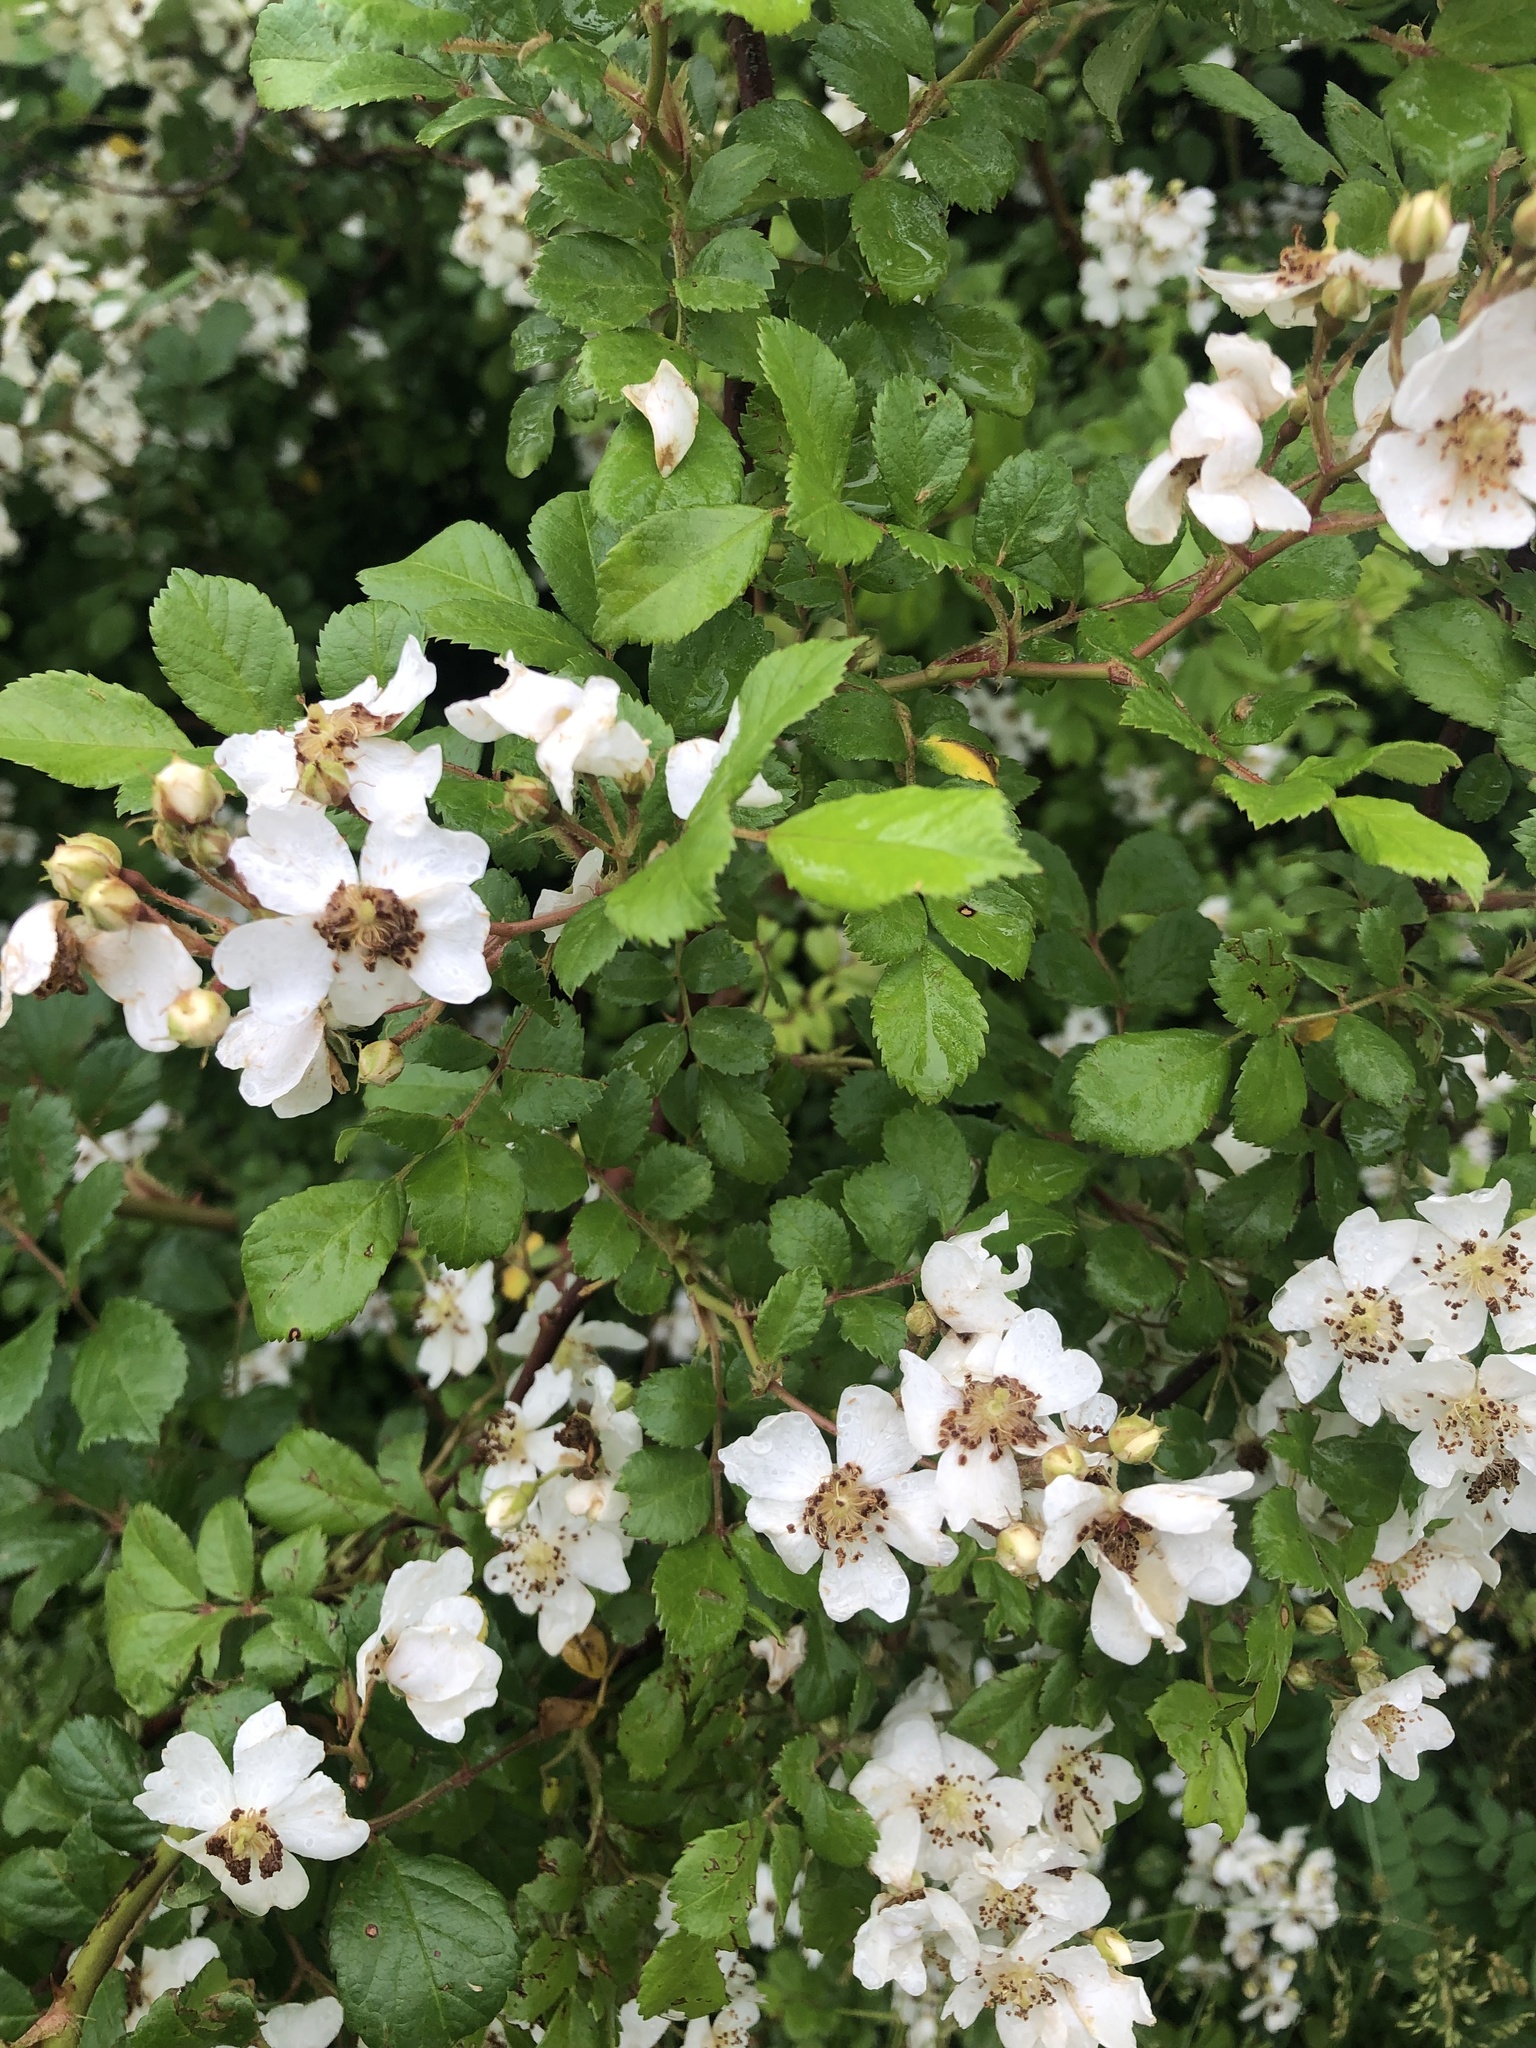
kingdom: Plantae
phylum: Tracheophyta
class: Magnoliopsida
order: Rosales
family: Rosaceae
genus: Rosa
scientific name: Rosa multiflora
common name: Multiflora rose
